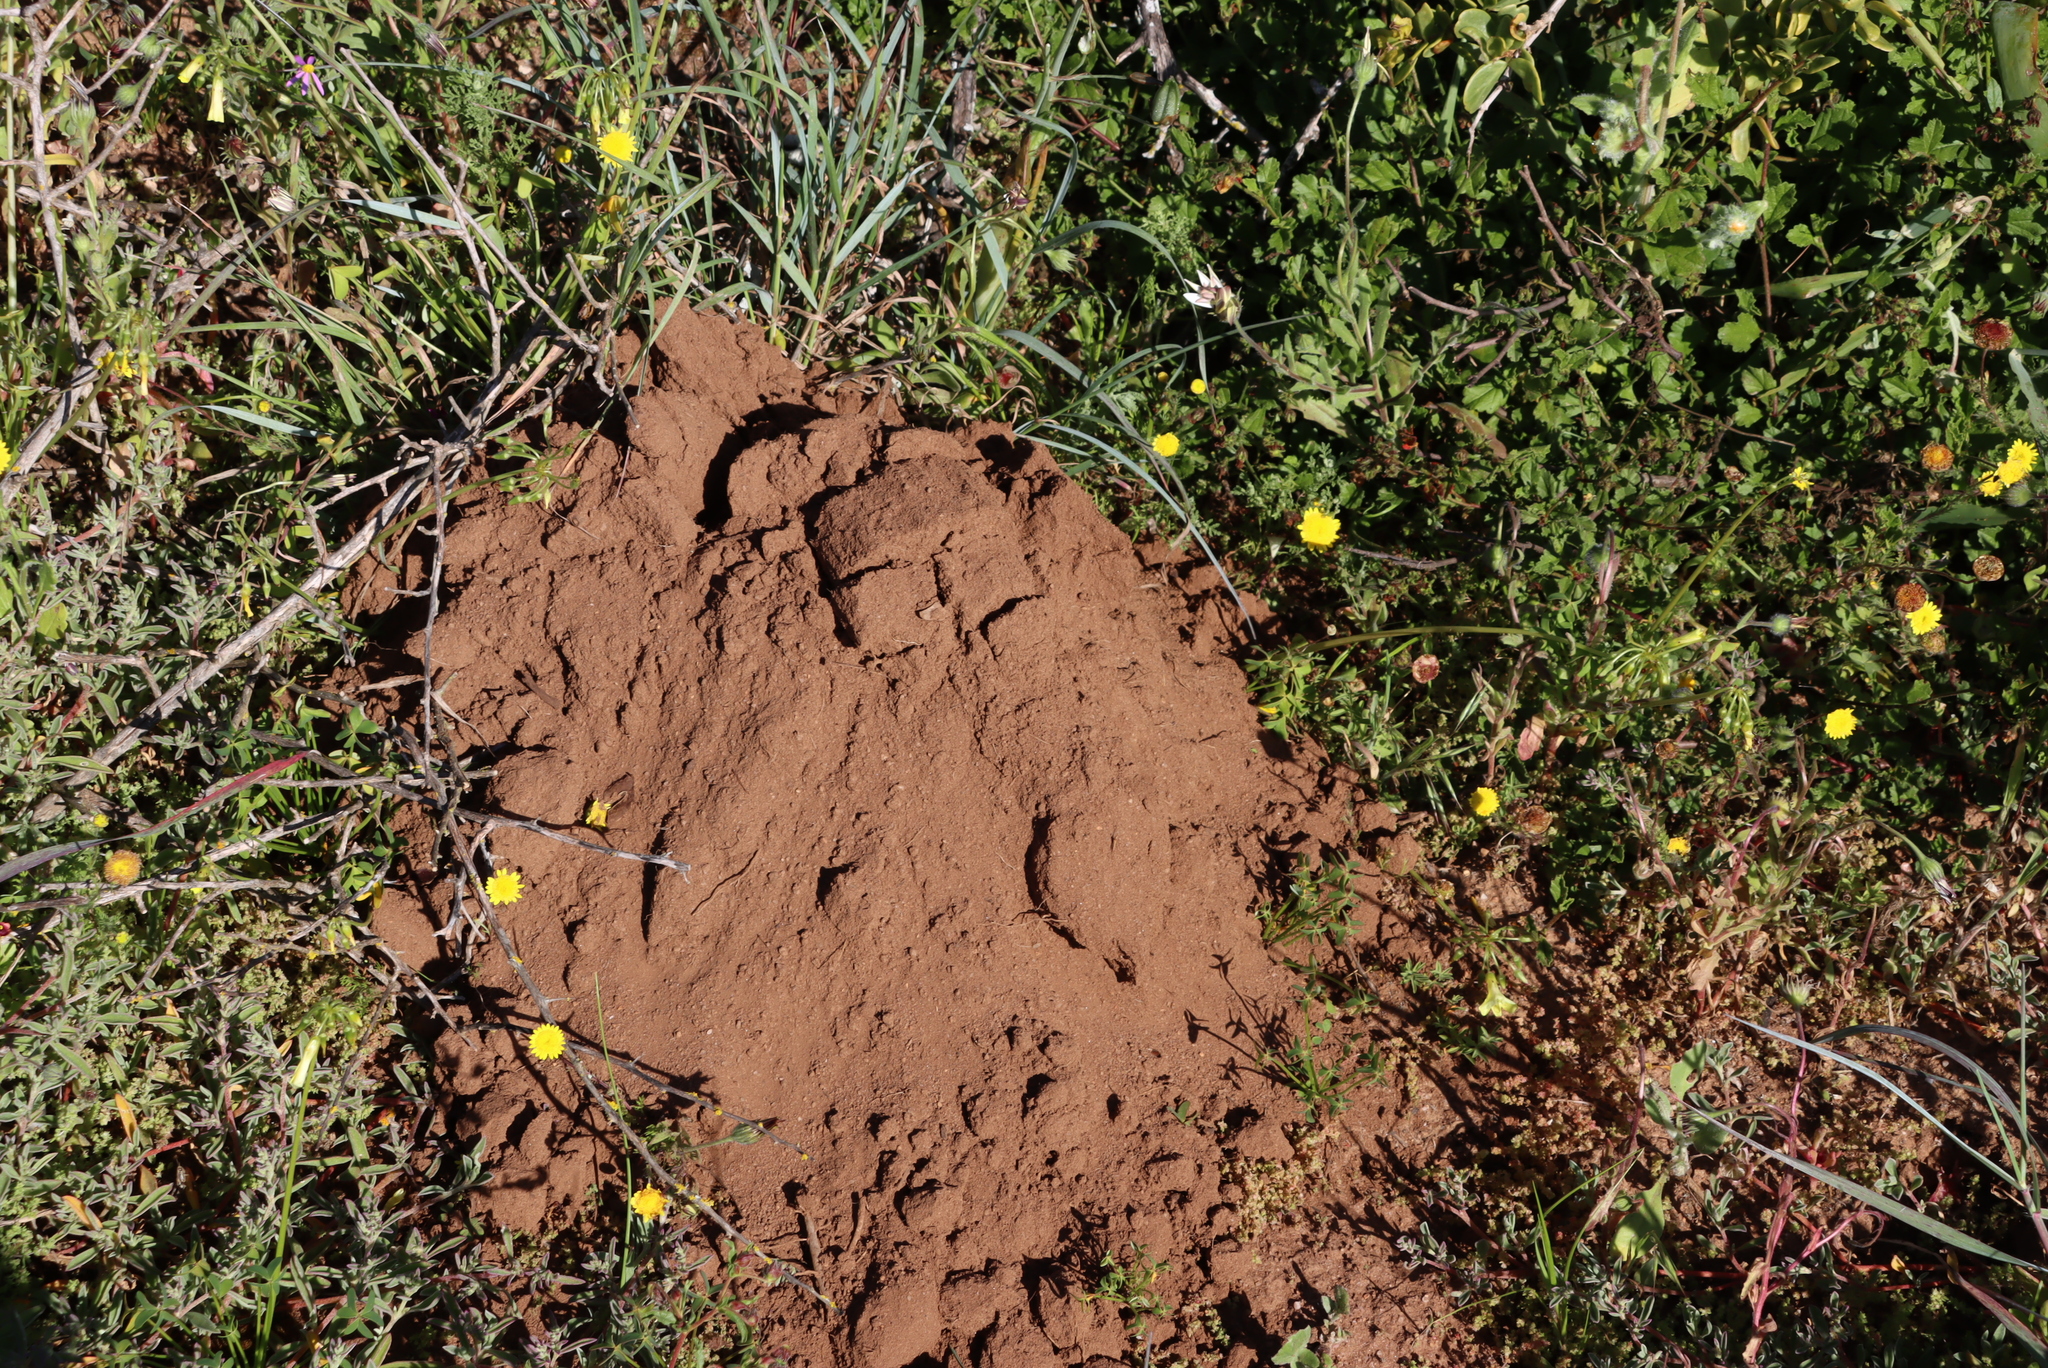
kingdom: Animalia
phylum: Chordata
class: Mammalia
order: Rodentia
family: Bathyergidae
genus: Bathyergus
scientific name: Bathyergus suillus
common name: Cape dune mole rat
